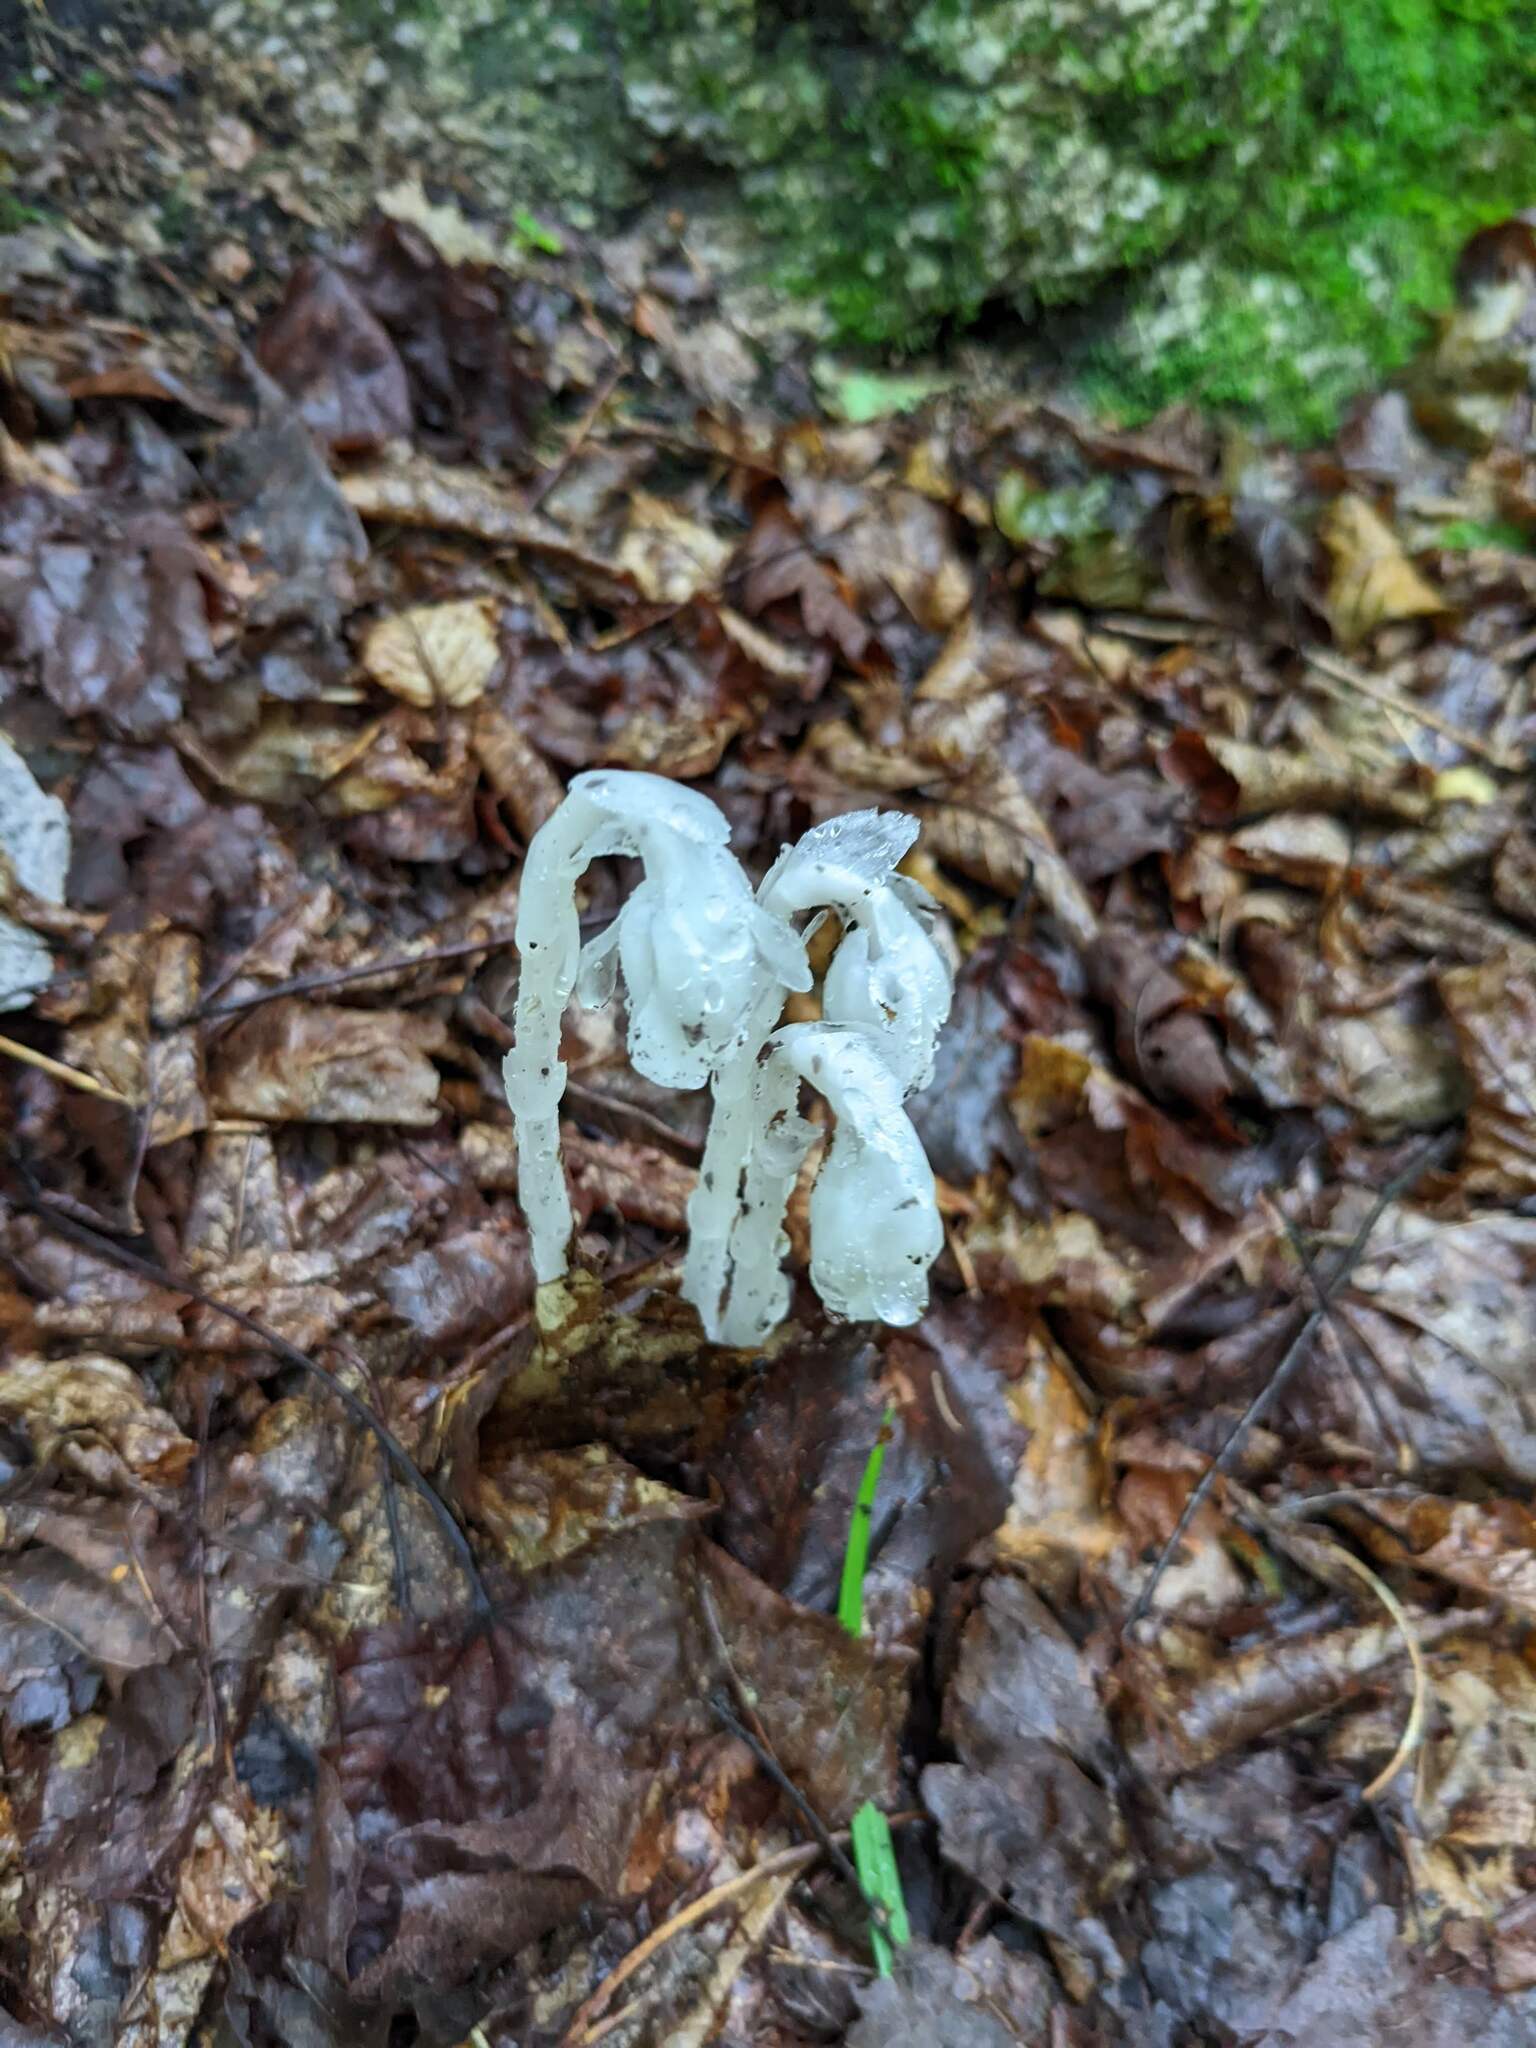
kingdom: Plantae
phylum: Tracheophyta
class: Magnoliopsida
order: Ericales
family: Ericaceae
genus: Monotropa
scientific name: Monotropa uniflora
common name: Convulsion root
